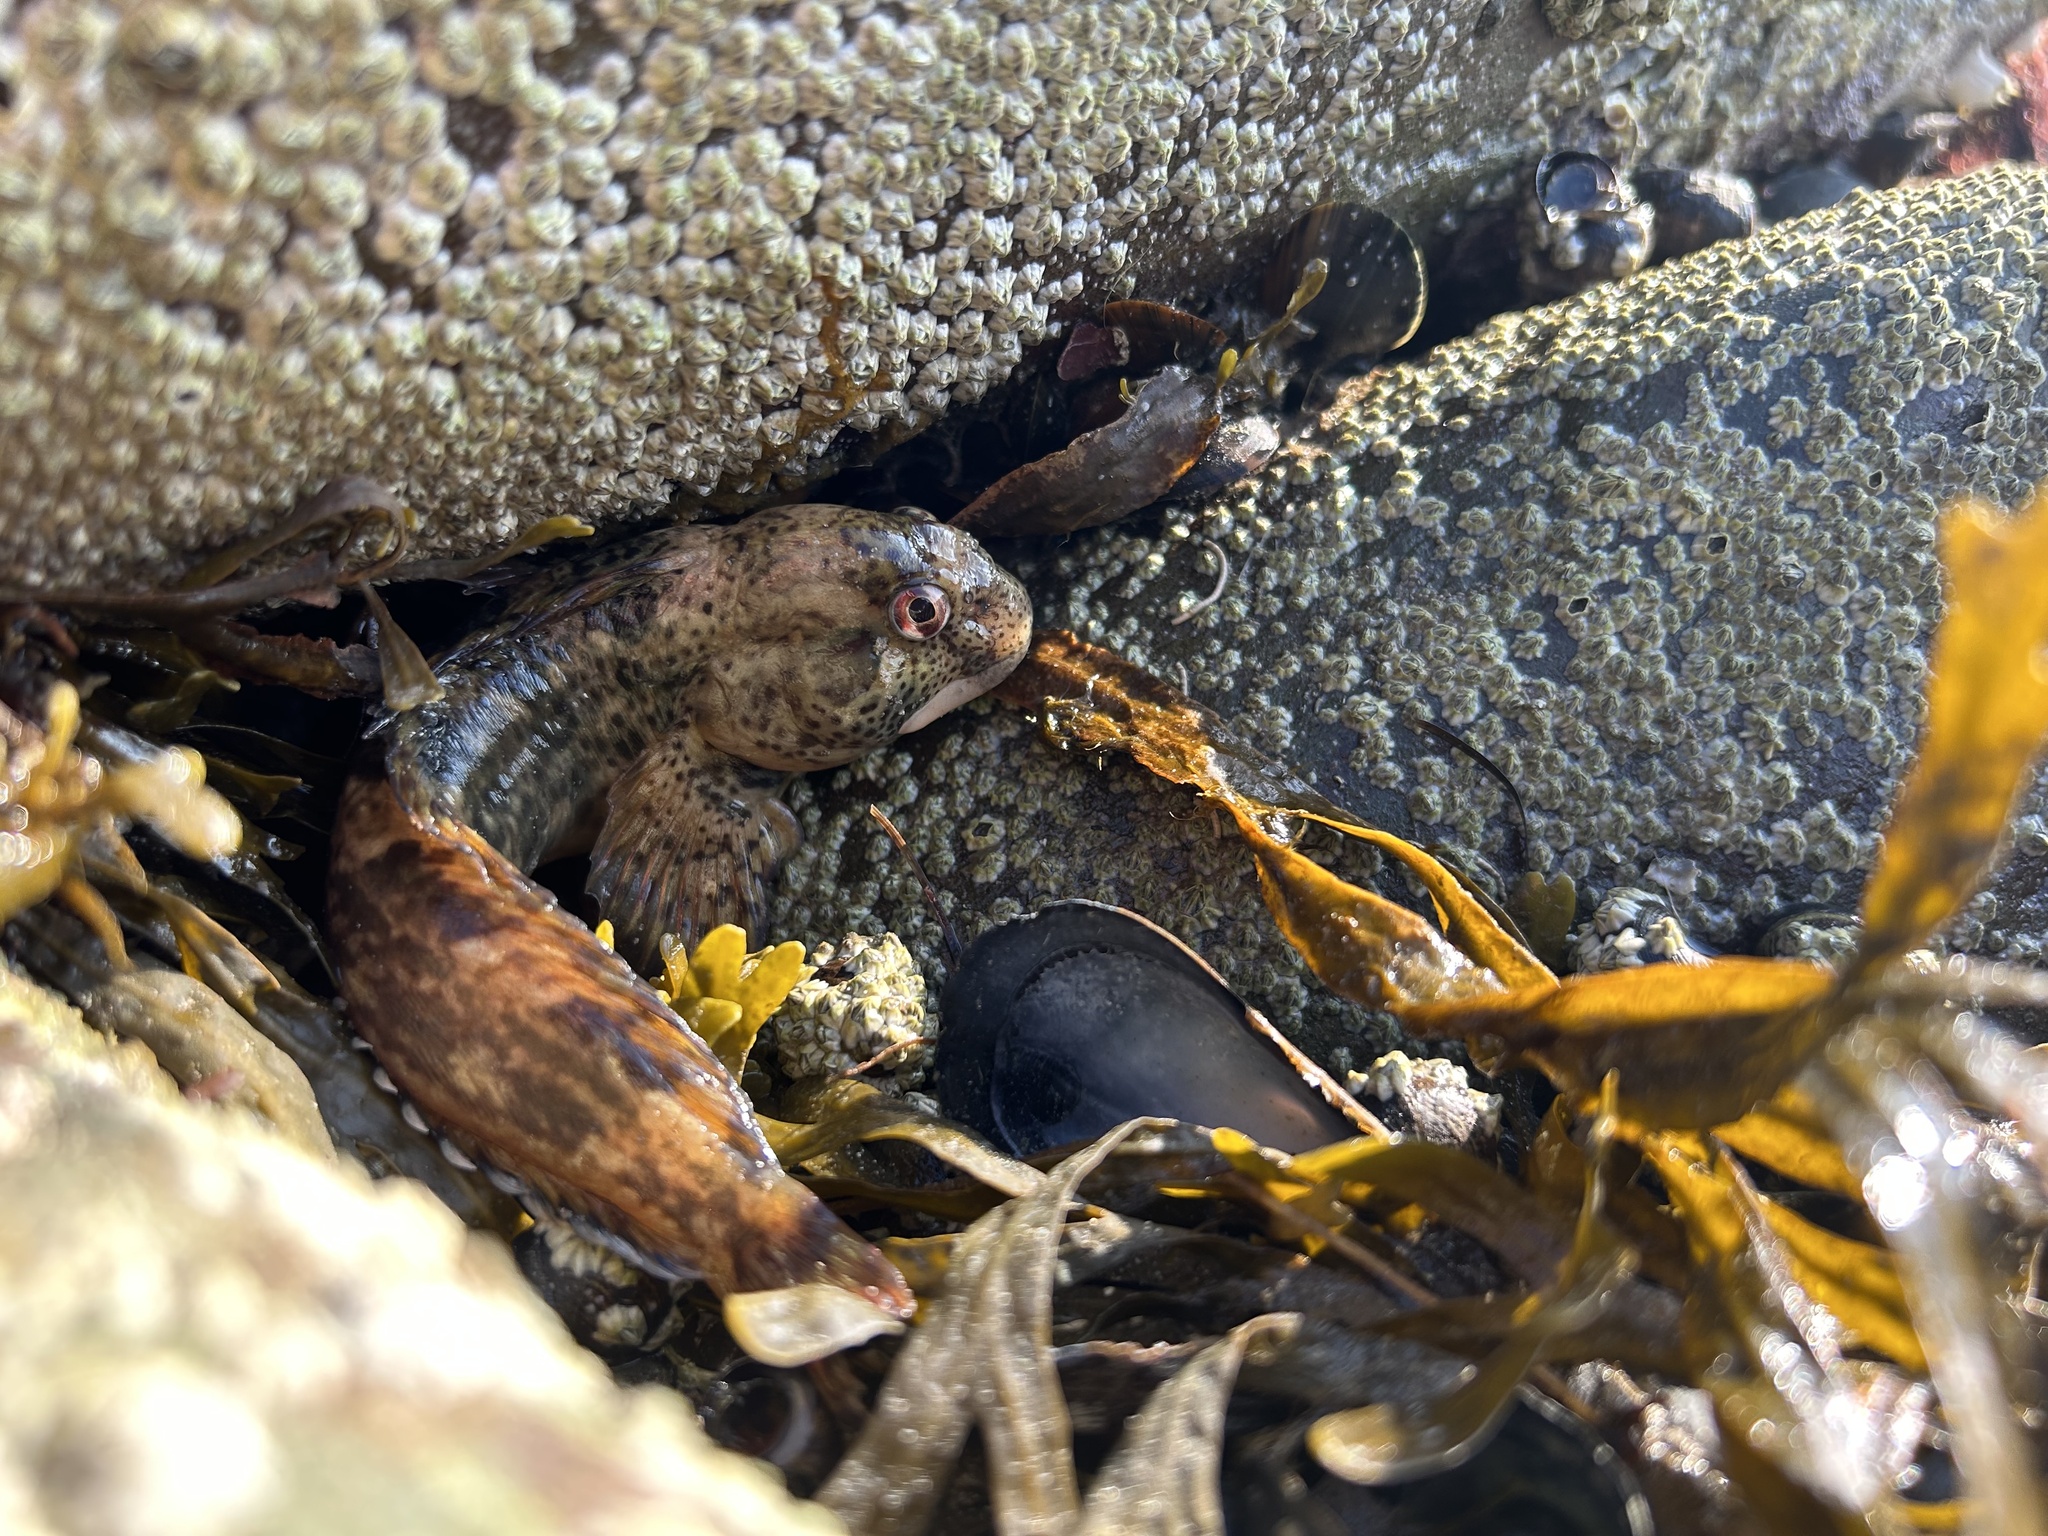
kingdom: Animalia
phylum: Chordata
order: Perciformes
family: Blenniidae
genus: Lipophrys
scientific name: Lipophrys pholis
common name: Shanny
